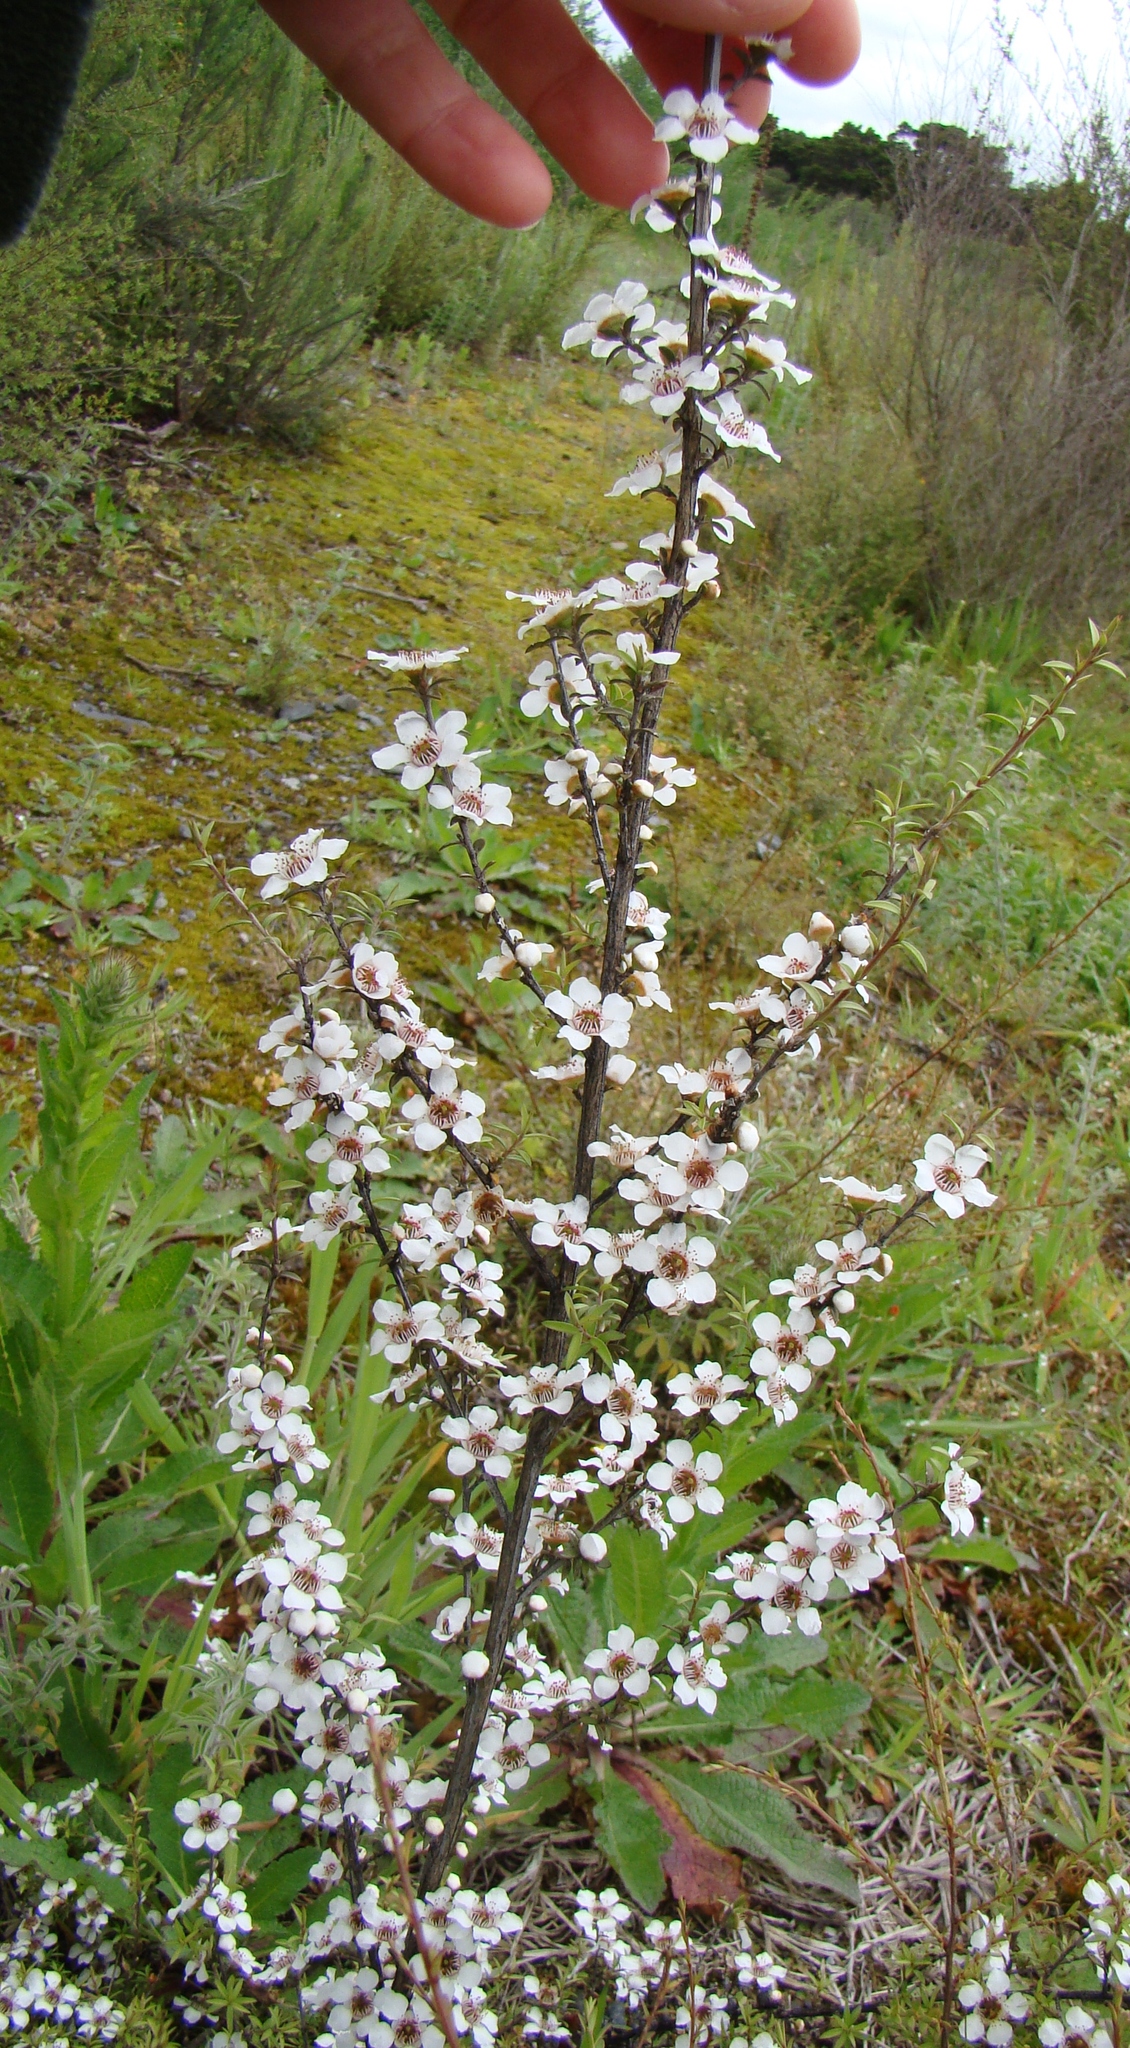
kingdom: Plantae
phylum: Tracheophyta
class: Magnoliopsida
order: Myrtales
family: Myrtaceae
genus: Leptospermum
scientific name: Leptospermum scoparium
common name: Broom tea-tree
